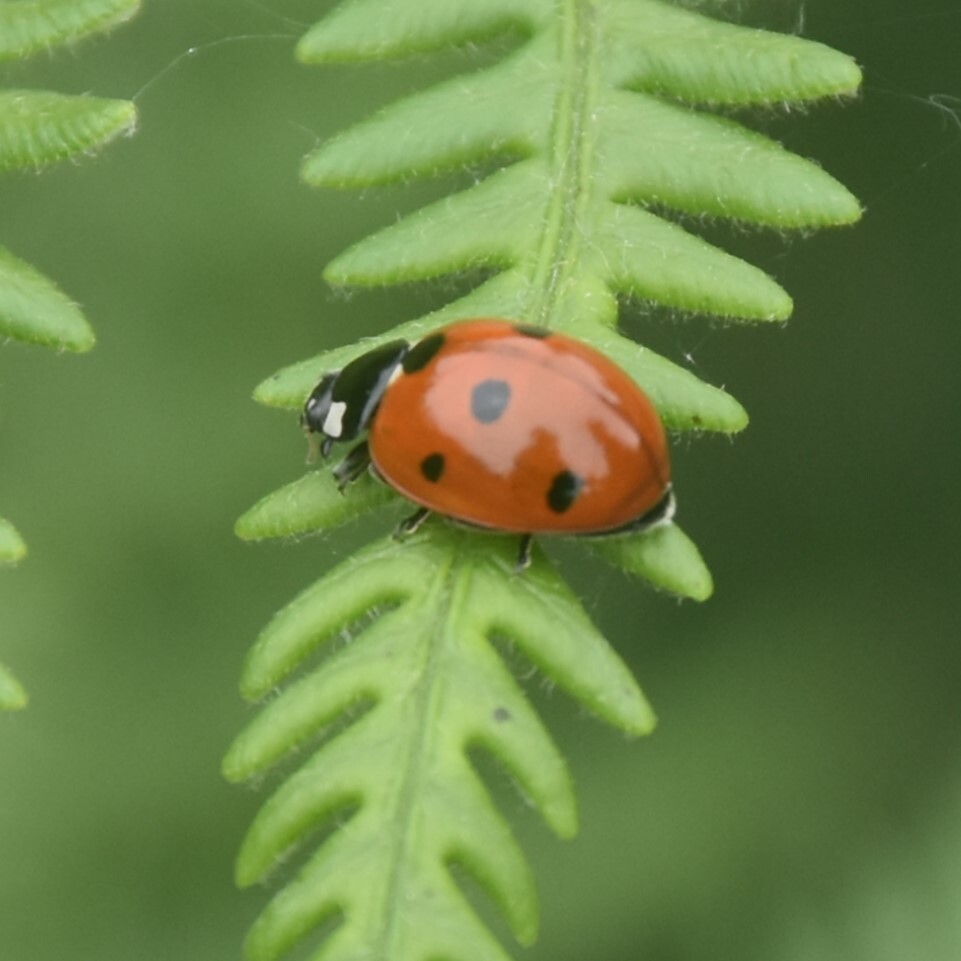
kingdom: Animalia
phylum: Arthropoda
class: Insecta
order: Coleoptera
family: Coccinellidae
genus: Coccinella
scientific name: Coccinella septempunctata
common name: Sevenspotted lady beetle
